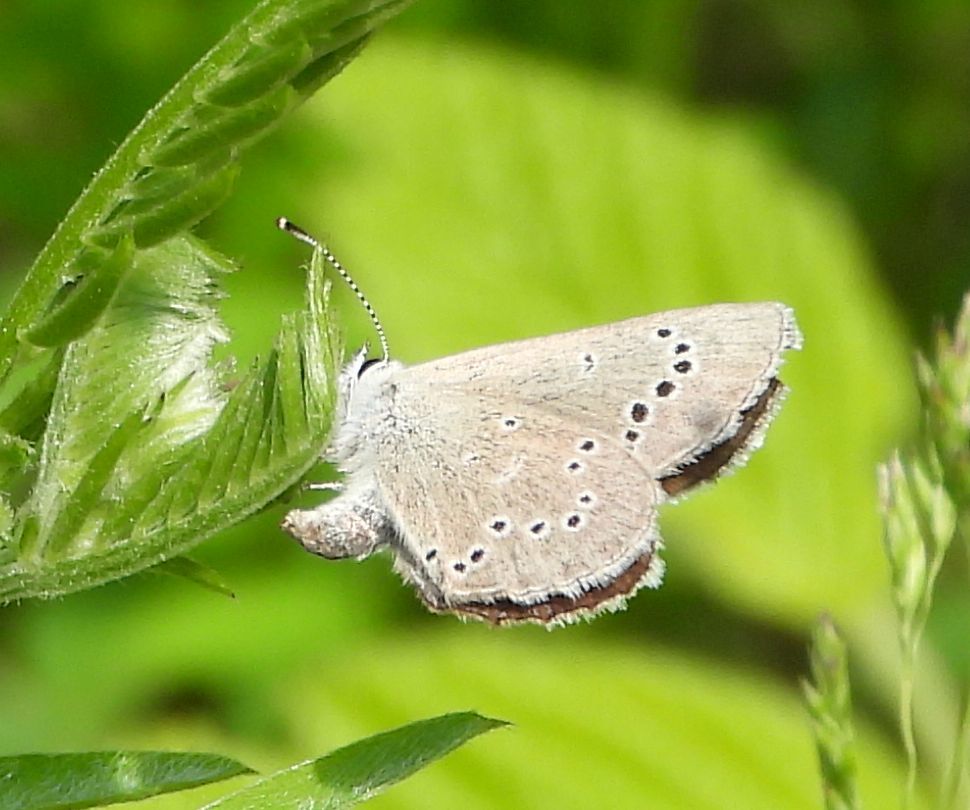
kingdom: Animalia
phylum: Arthropoda
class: Insecta
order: Lepidoptera
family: Lycaenidae
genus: Glaucopsyche
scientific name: Glaucopsyche lygdamus
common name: Silvery blue
